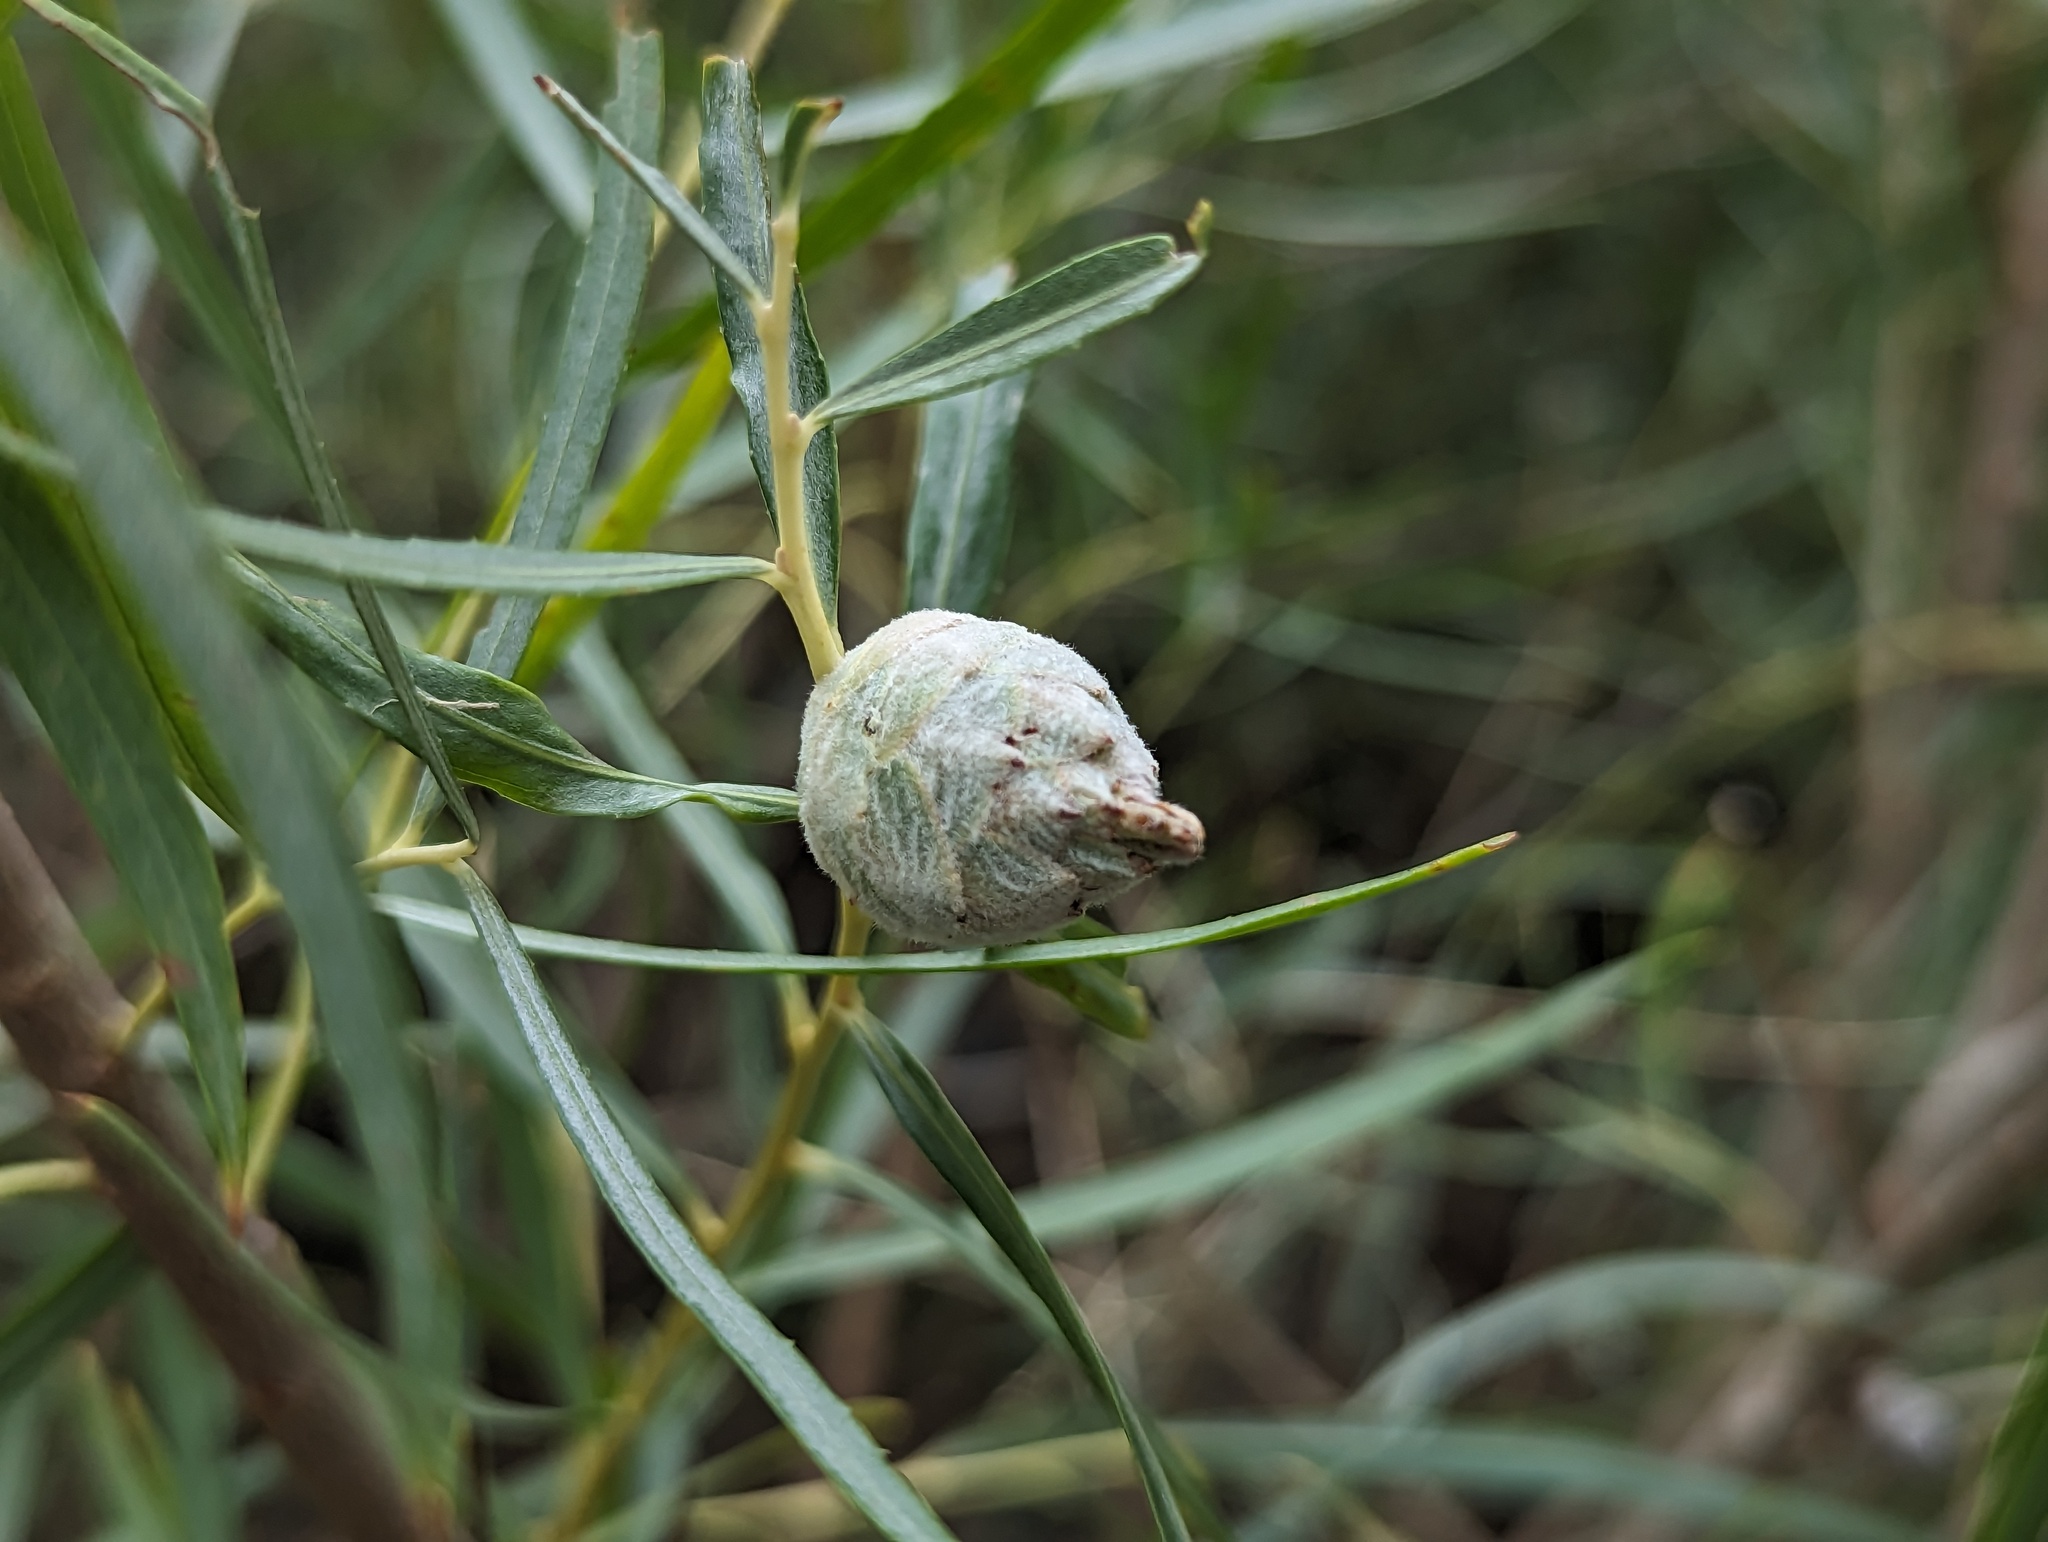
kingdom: Animalia
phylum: Arthropoda
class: Insecta
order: Diptera
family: Cecidomyiidae
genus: Rabdophaga
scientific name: Rabdophaga strobiloides
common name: Willow pinecone gall midge
